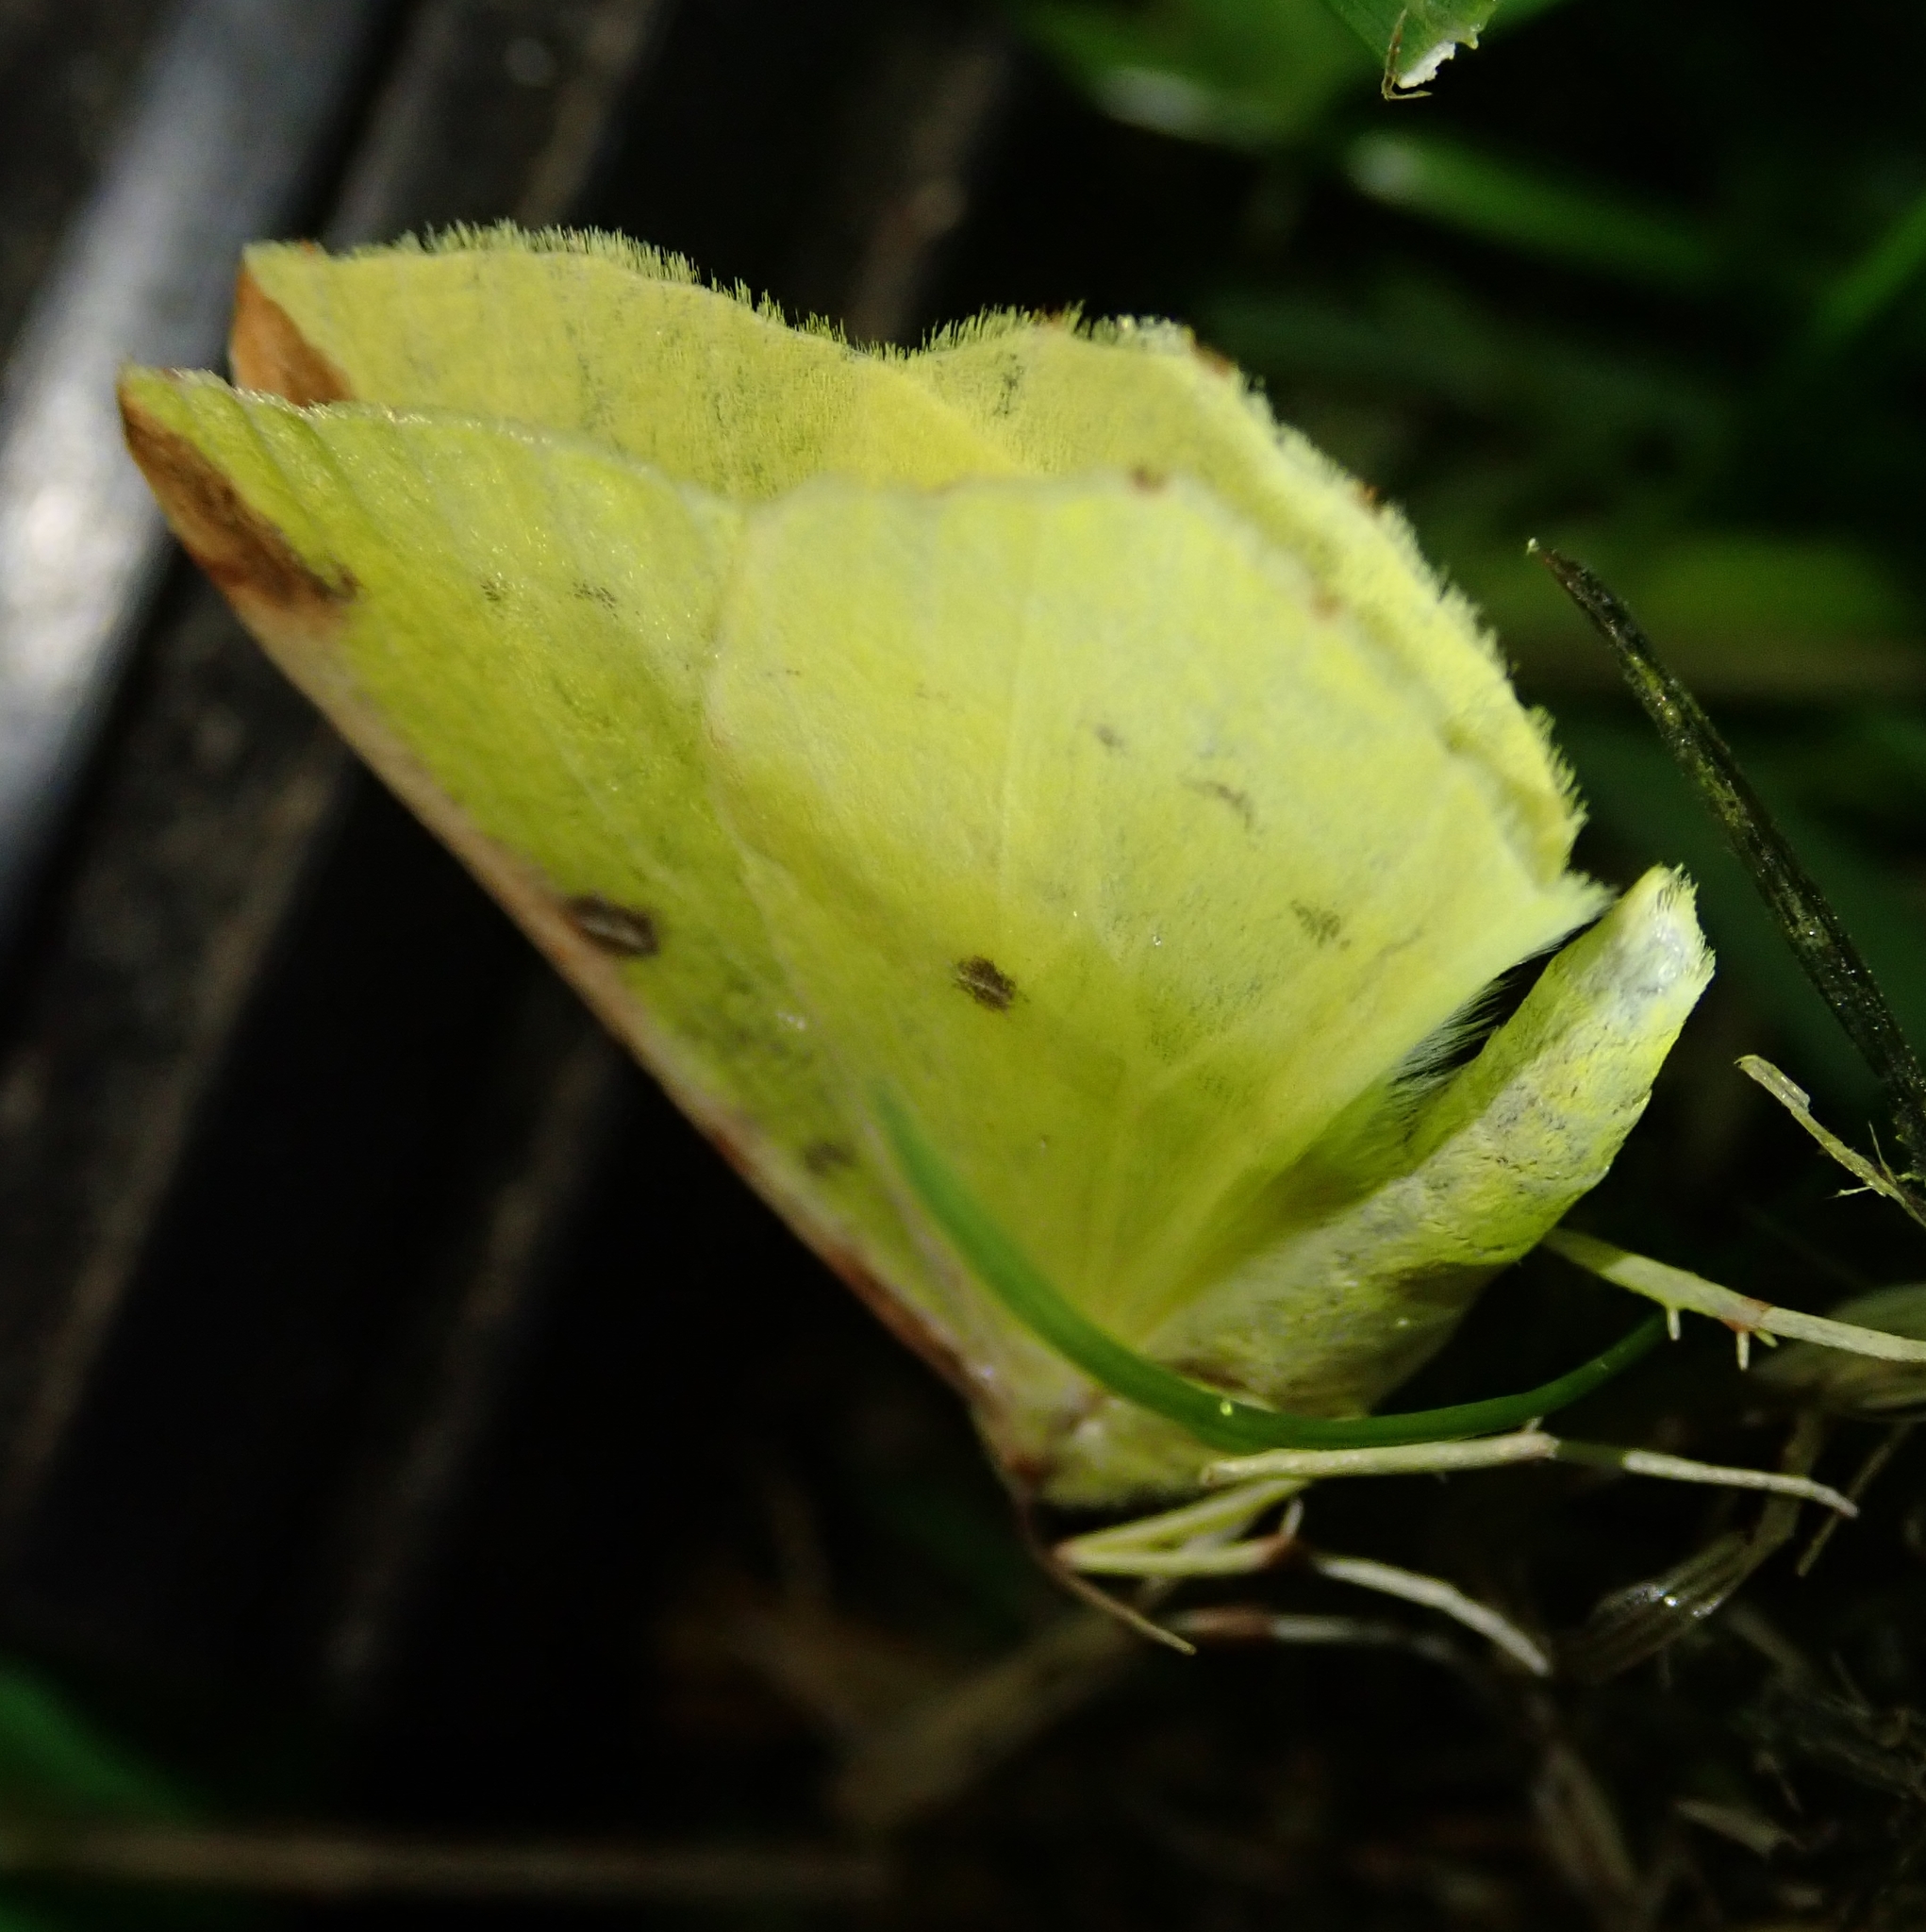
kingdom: Animalia
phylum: Arthropoda
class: Insecta
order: Lepidoptera
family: Geometridae
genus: Opisthograptis
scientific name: Opisthograptis luteolata
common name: Brimstone moth
